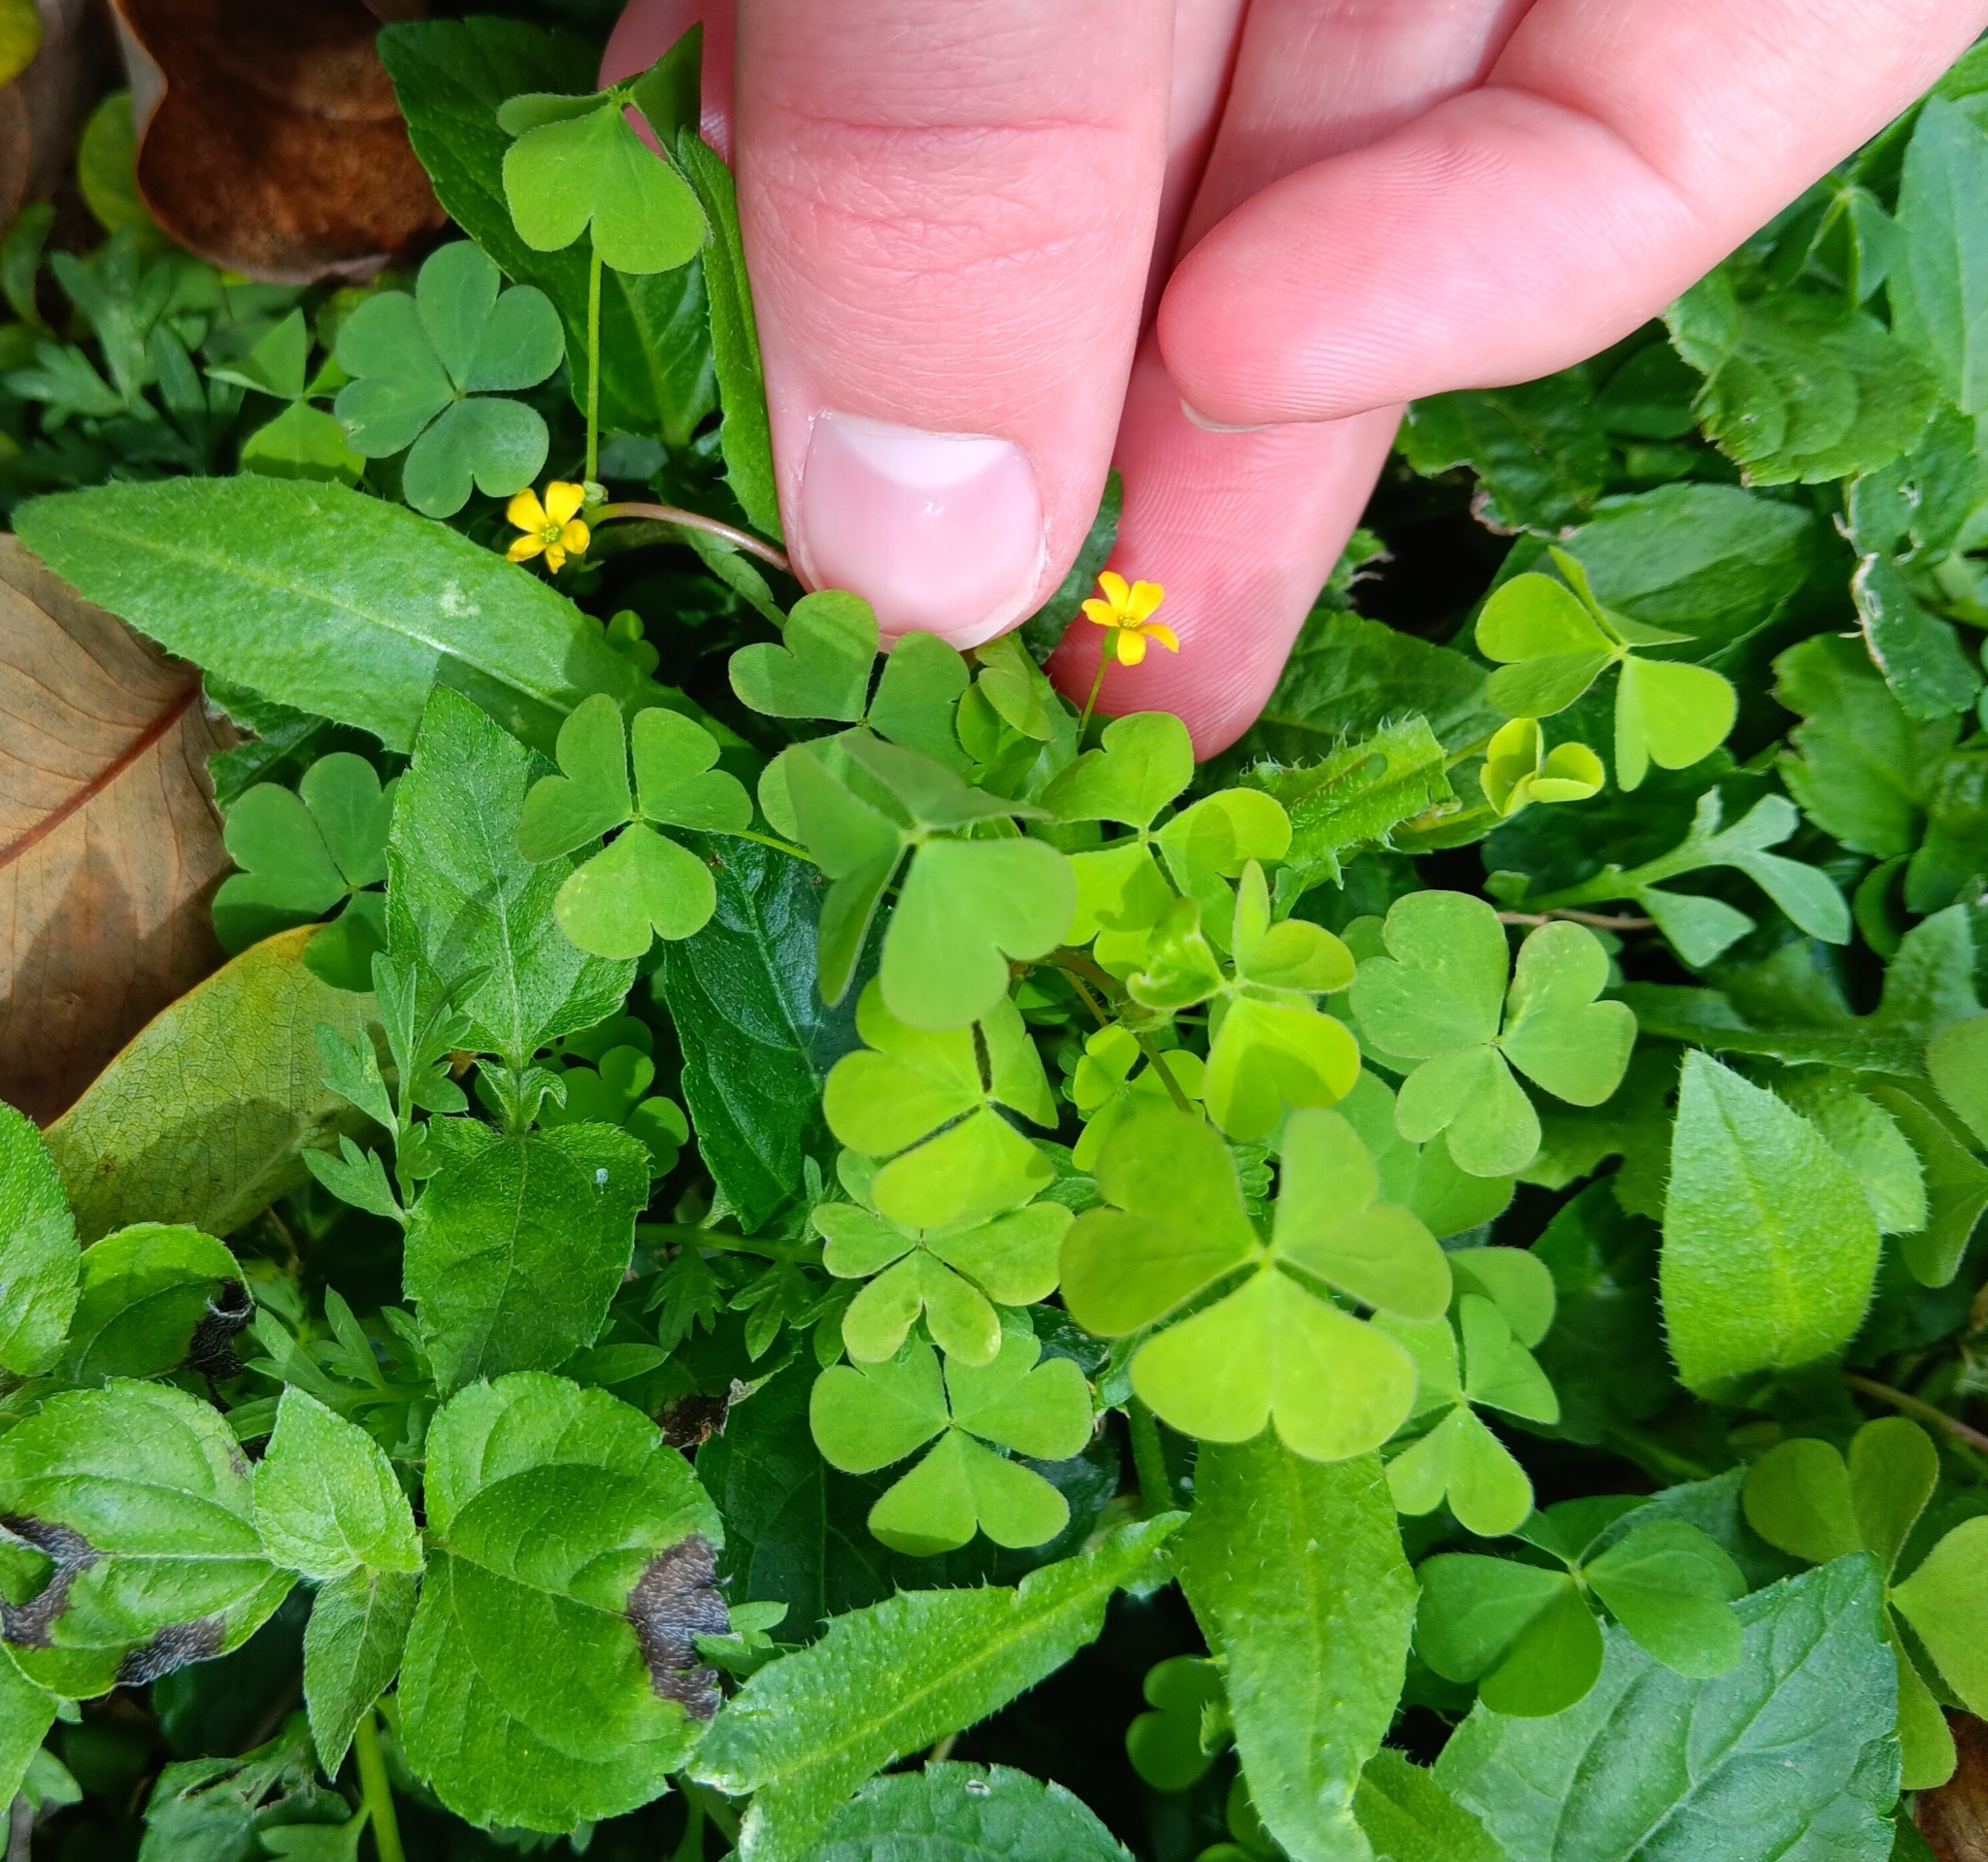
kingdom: Plantae
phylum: Tracheophyta
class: Magnoliopsida
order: Oxalidales
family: Oxalidaceae
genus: Oxalis
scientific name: Oxalis corniculata
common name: Procumbent yellow-sorrel
